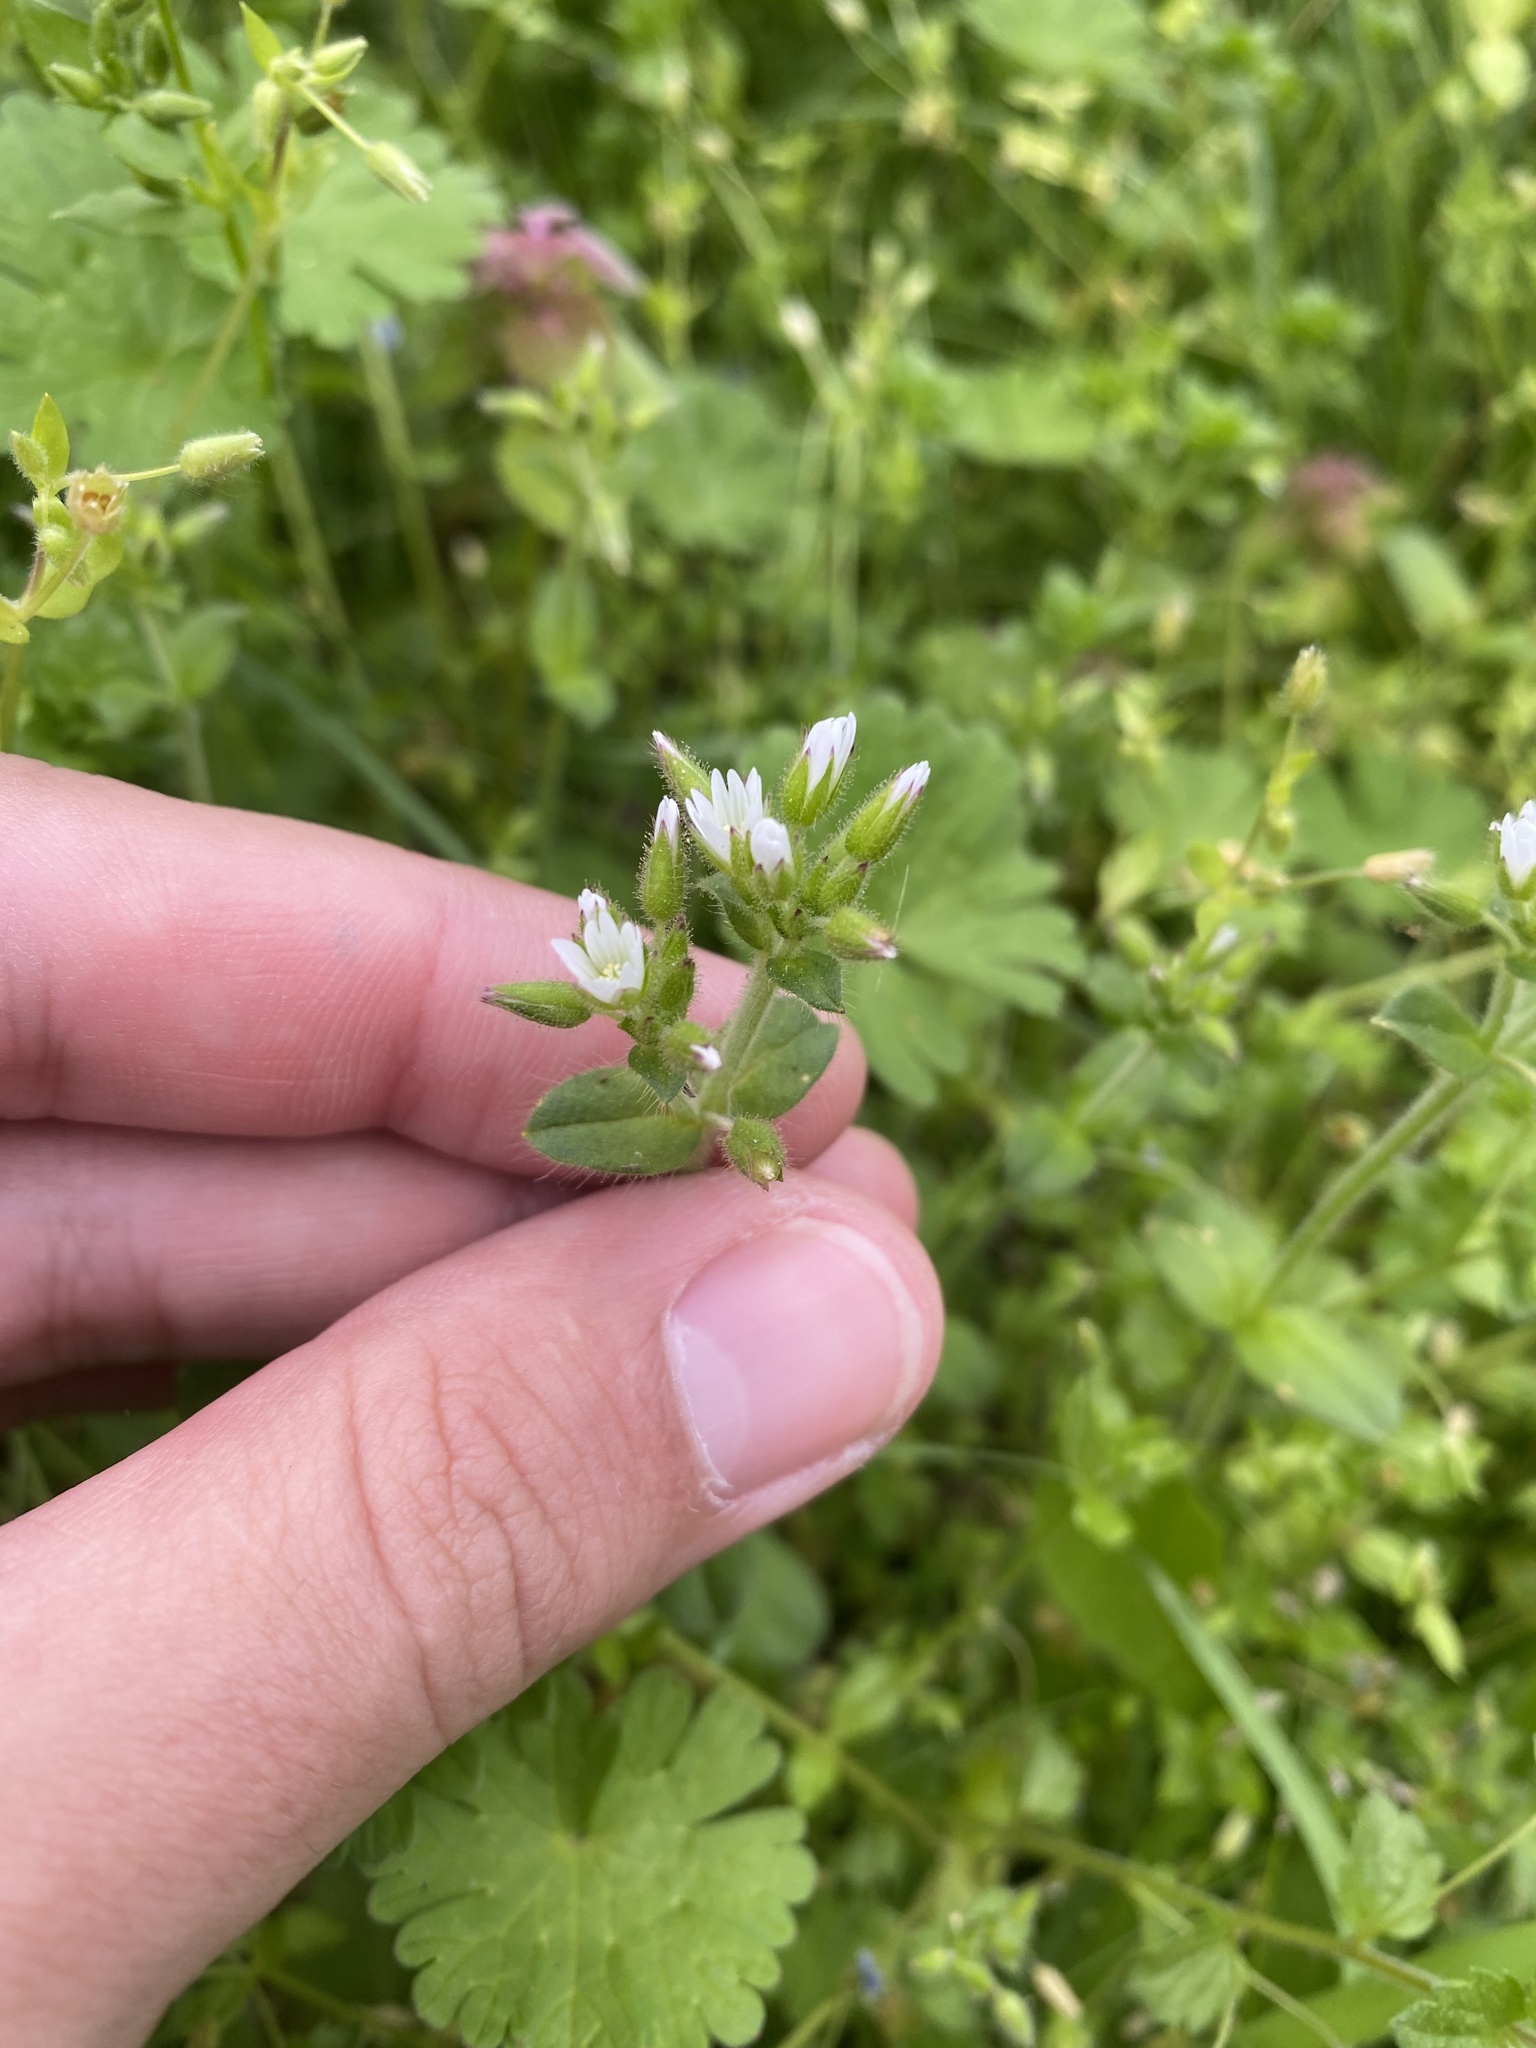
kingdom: Plantae
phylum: Tracheophyta
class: Magnoliopsida
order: Caryophyllales
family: Caryophyllaceae
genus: Cerastium
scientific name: Cerastium glomeratum
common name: Sticky chickweed
